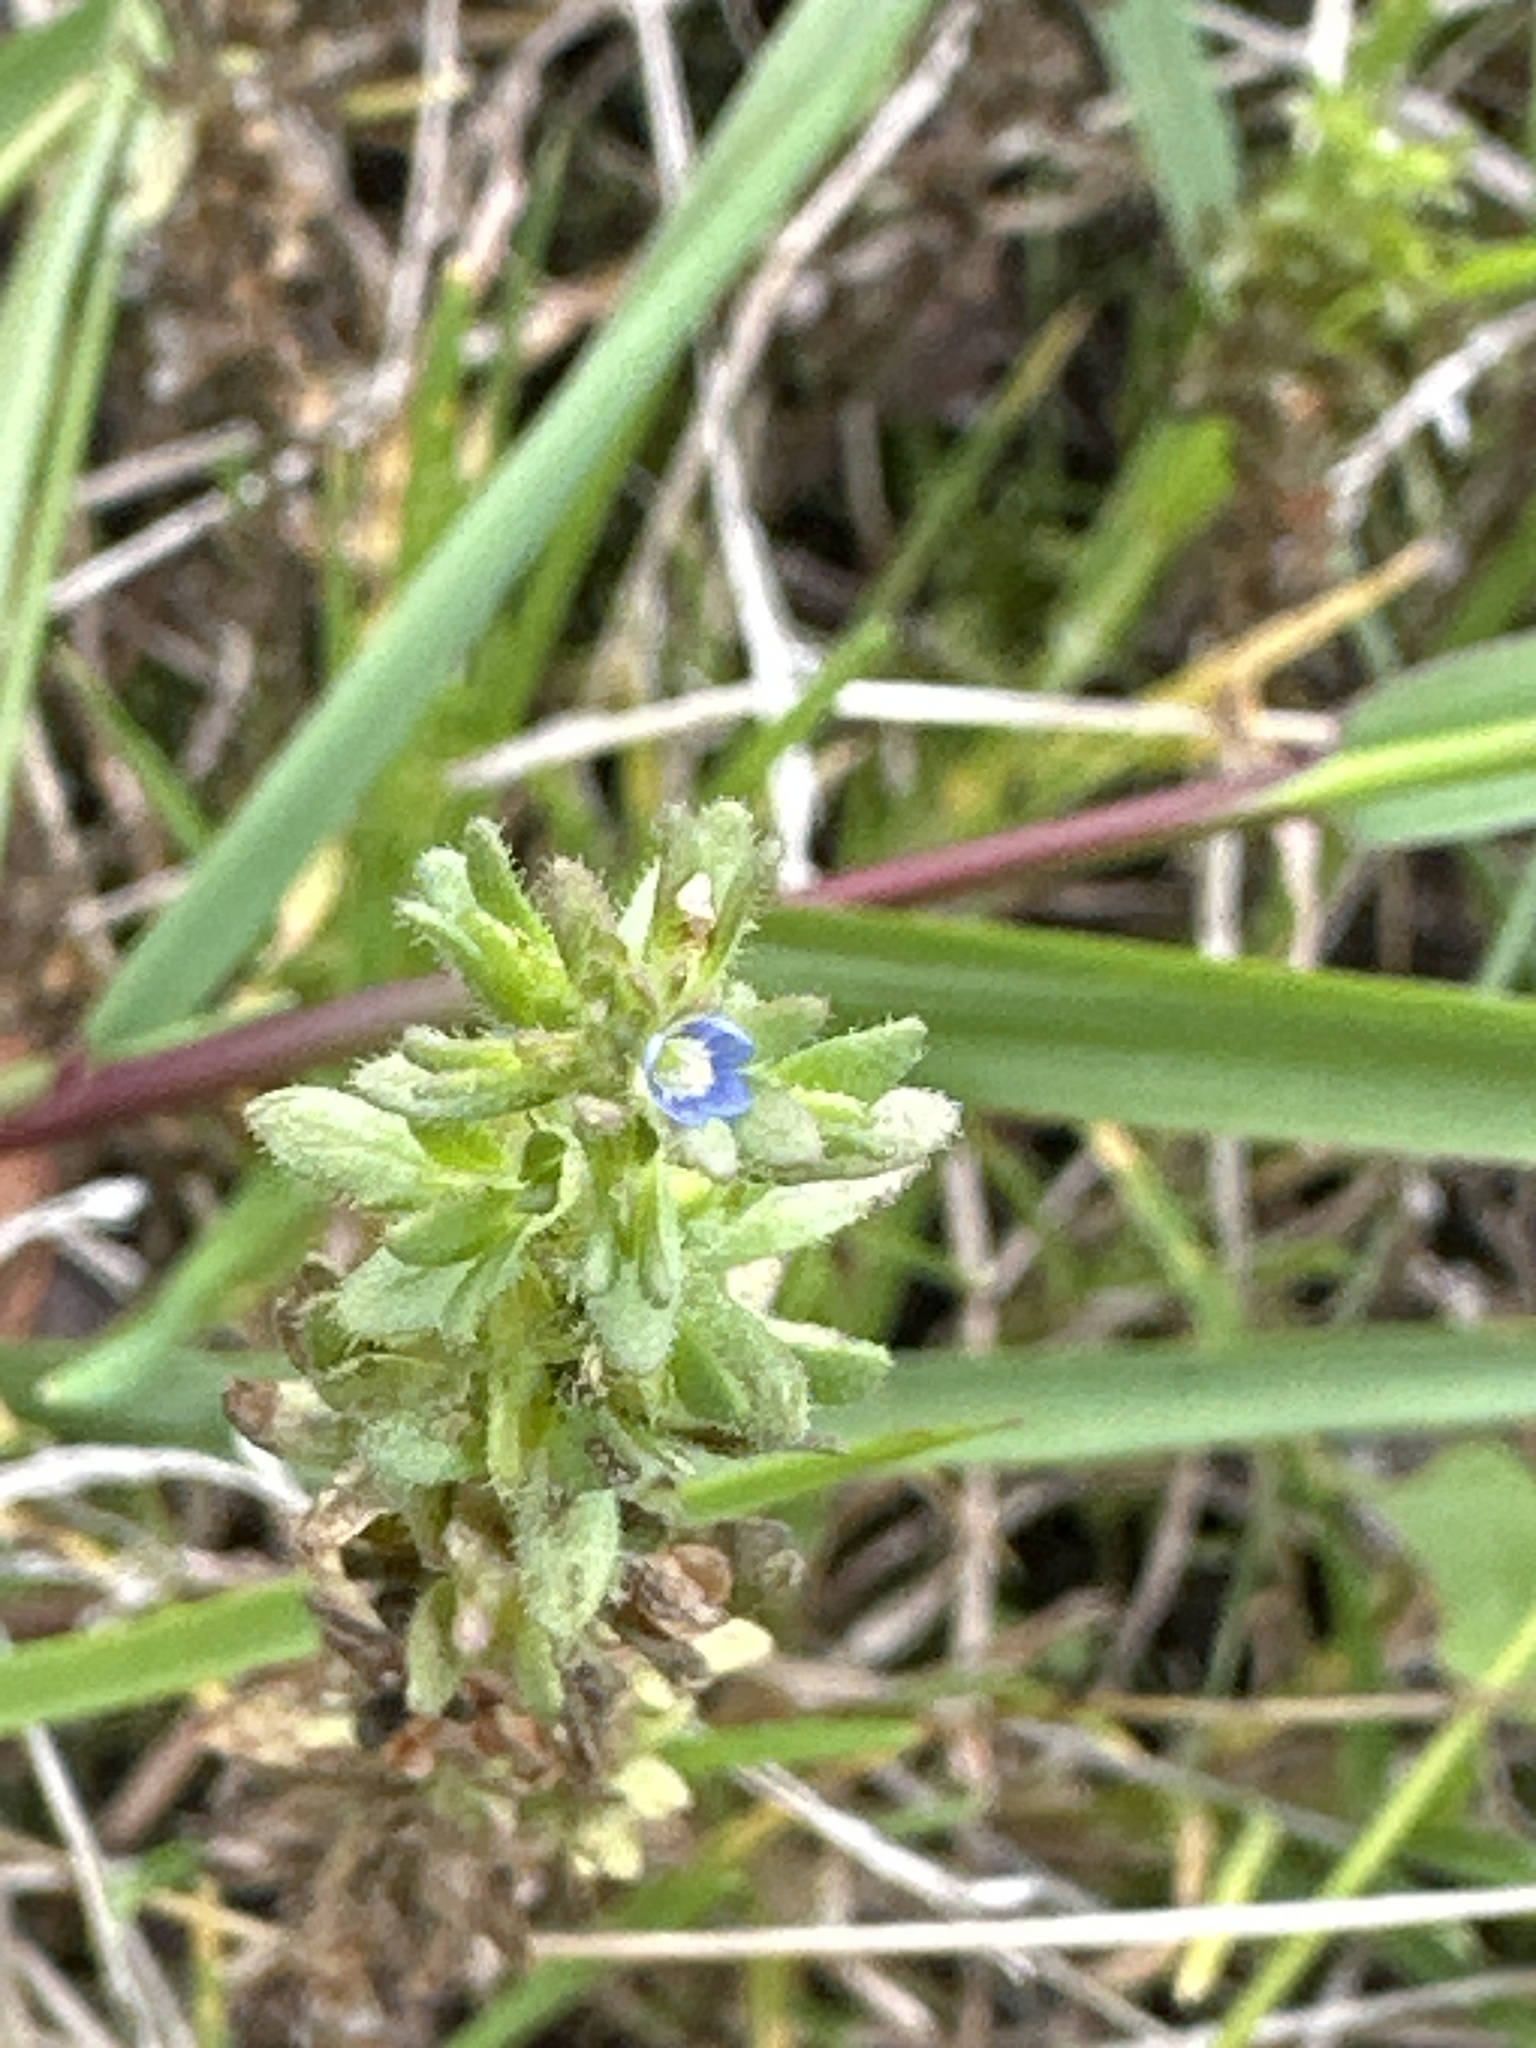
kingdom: Plantae
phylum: Tracheophyta
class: Magnoliopsida
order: Lamiales
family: Plantaginaceae
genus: Veronica
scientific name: Veronica arvensis
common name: Corn speedwell
